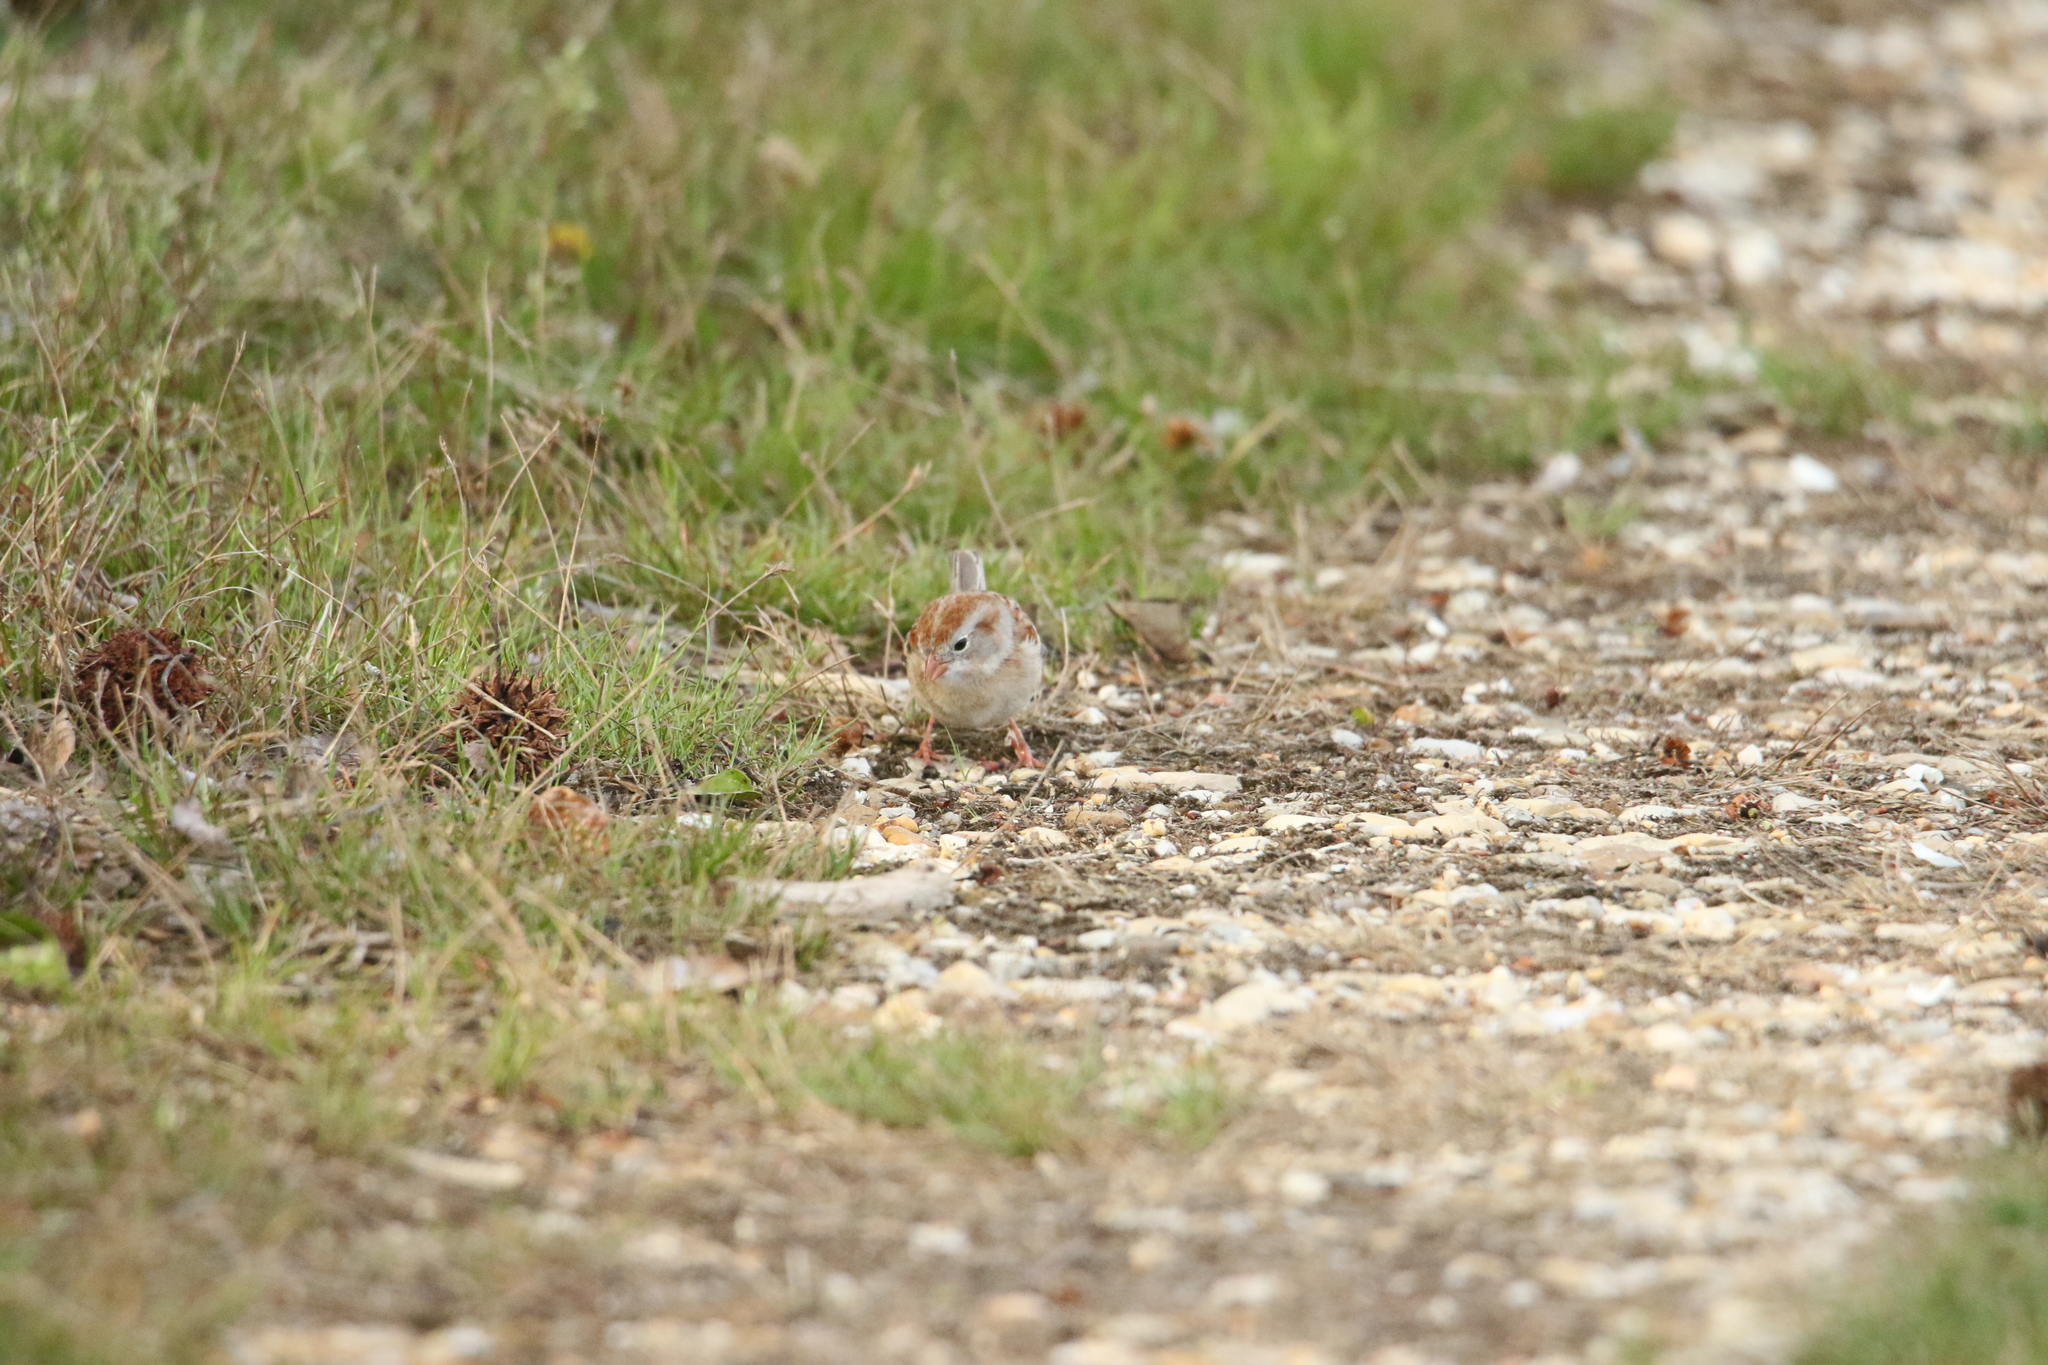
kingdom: Animalia
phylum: Chordata
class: Aves
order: Passeriformes
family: Passerellidae
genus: Spizella
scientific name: Spizella pusilla
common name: Field sparrow
